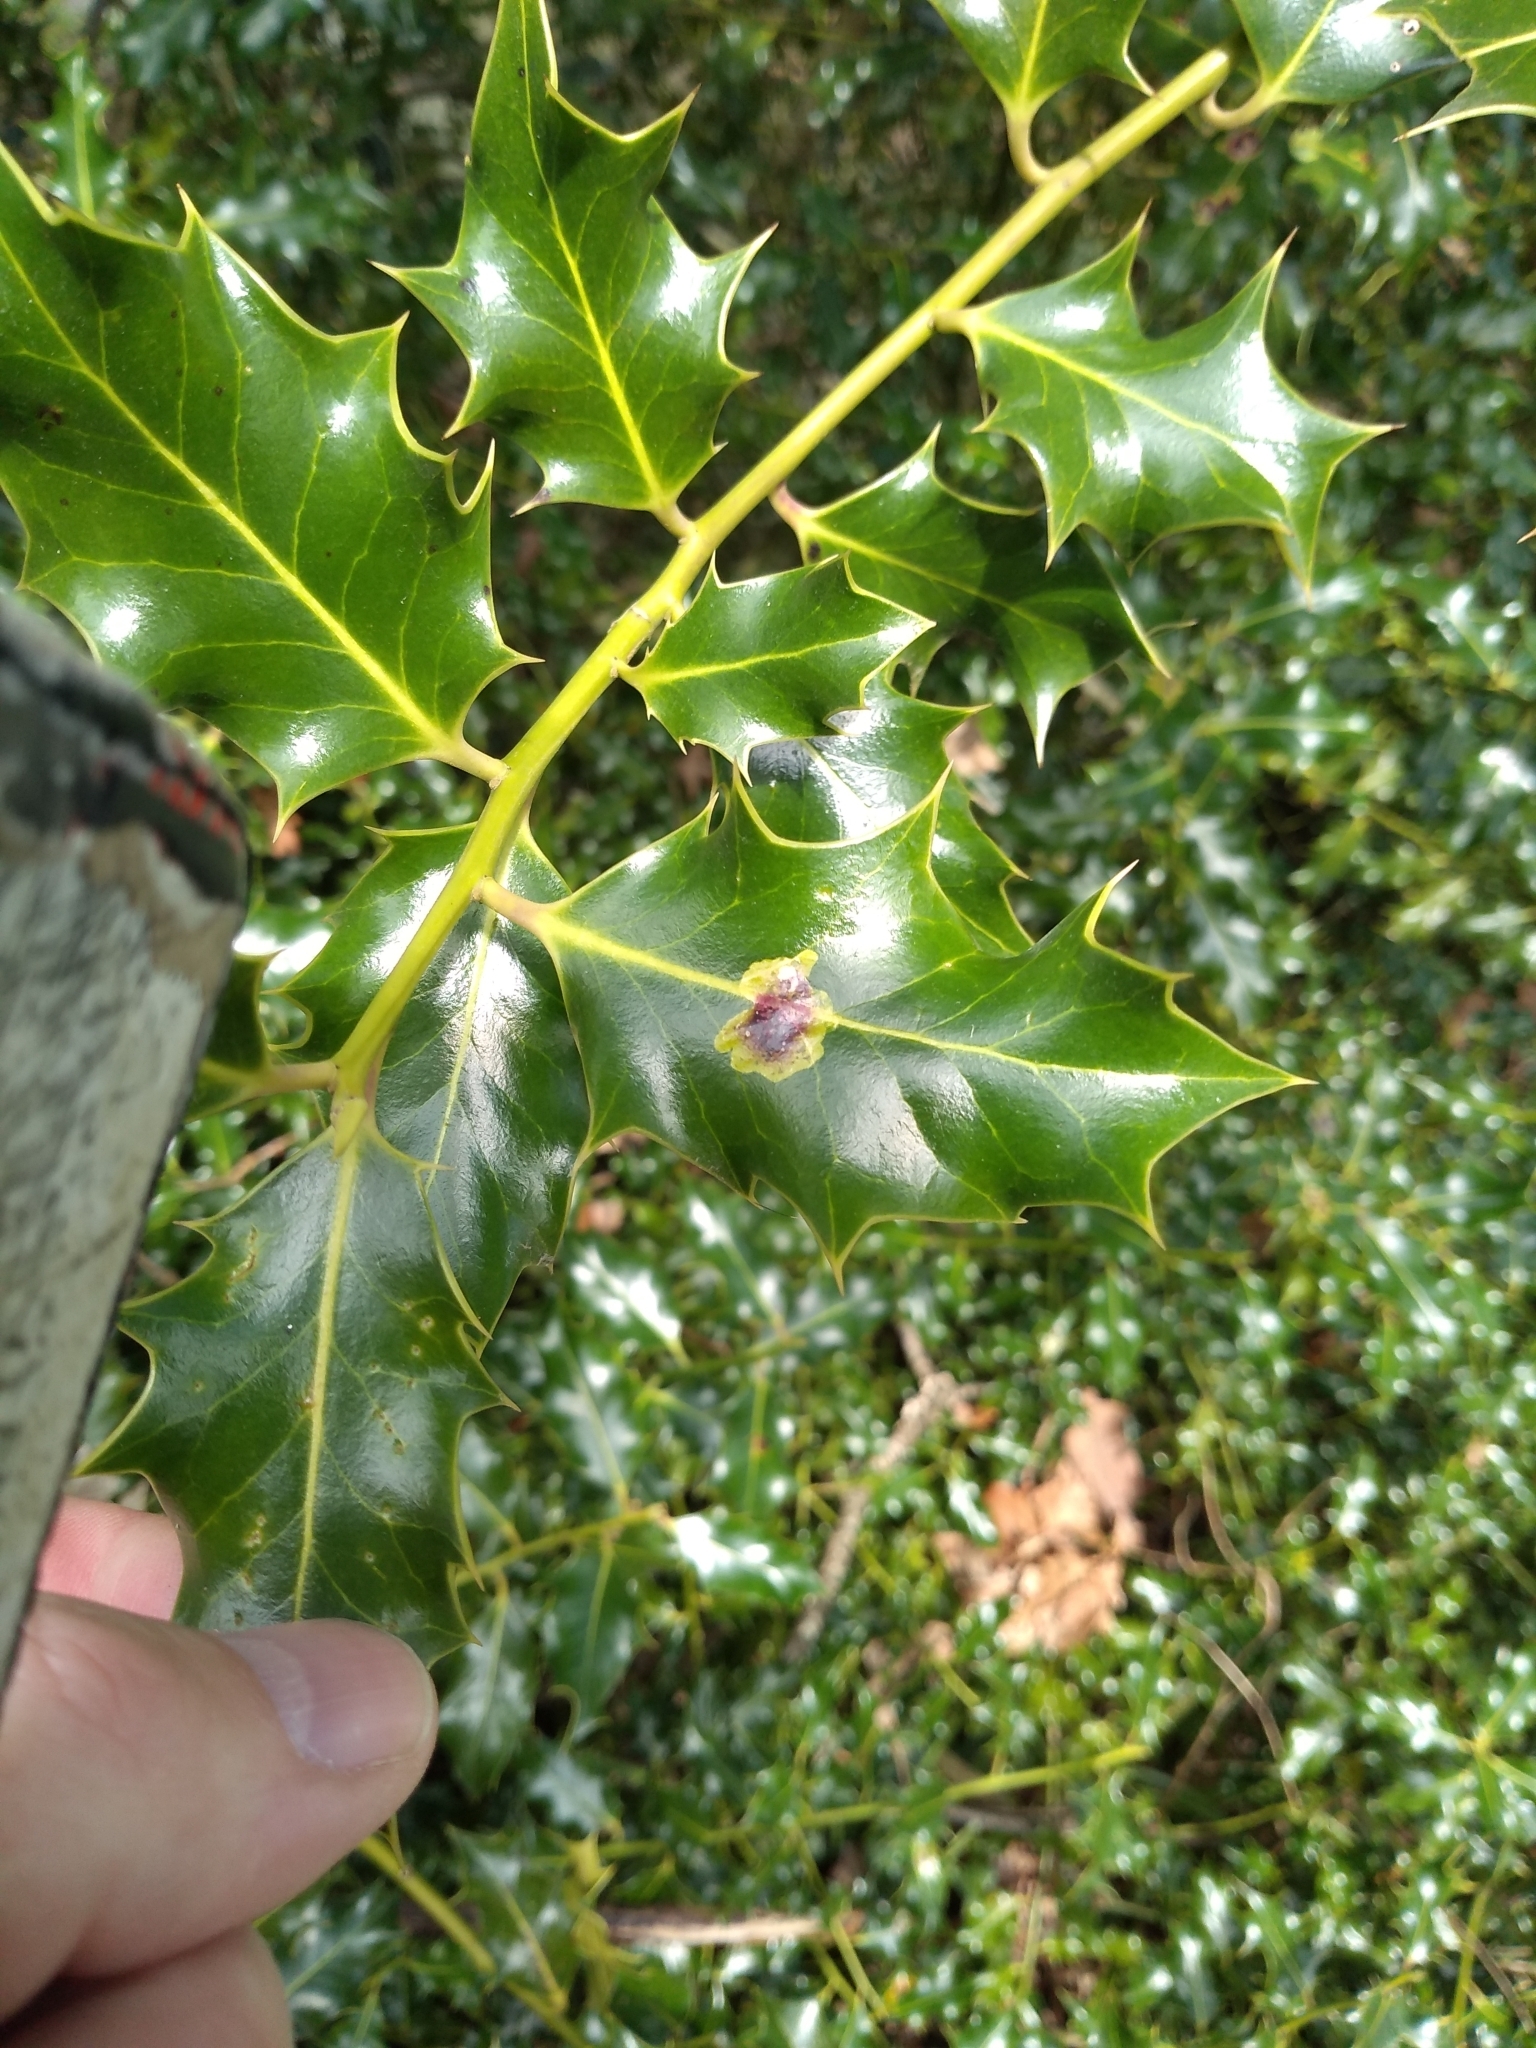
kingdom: Animalia
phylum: Arthropoda
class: Insecta
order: Diptera
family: Agromyzidae
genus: Phytomyza
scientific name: Phytomyza ilicis
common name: Holly leafminer
